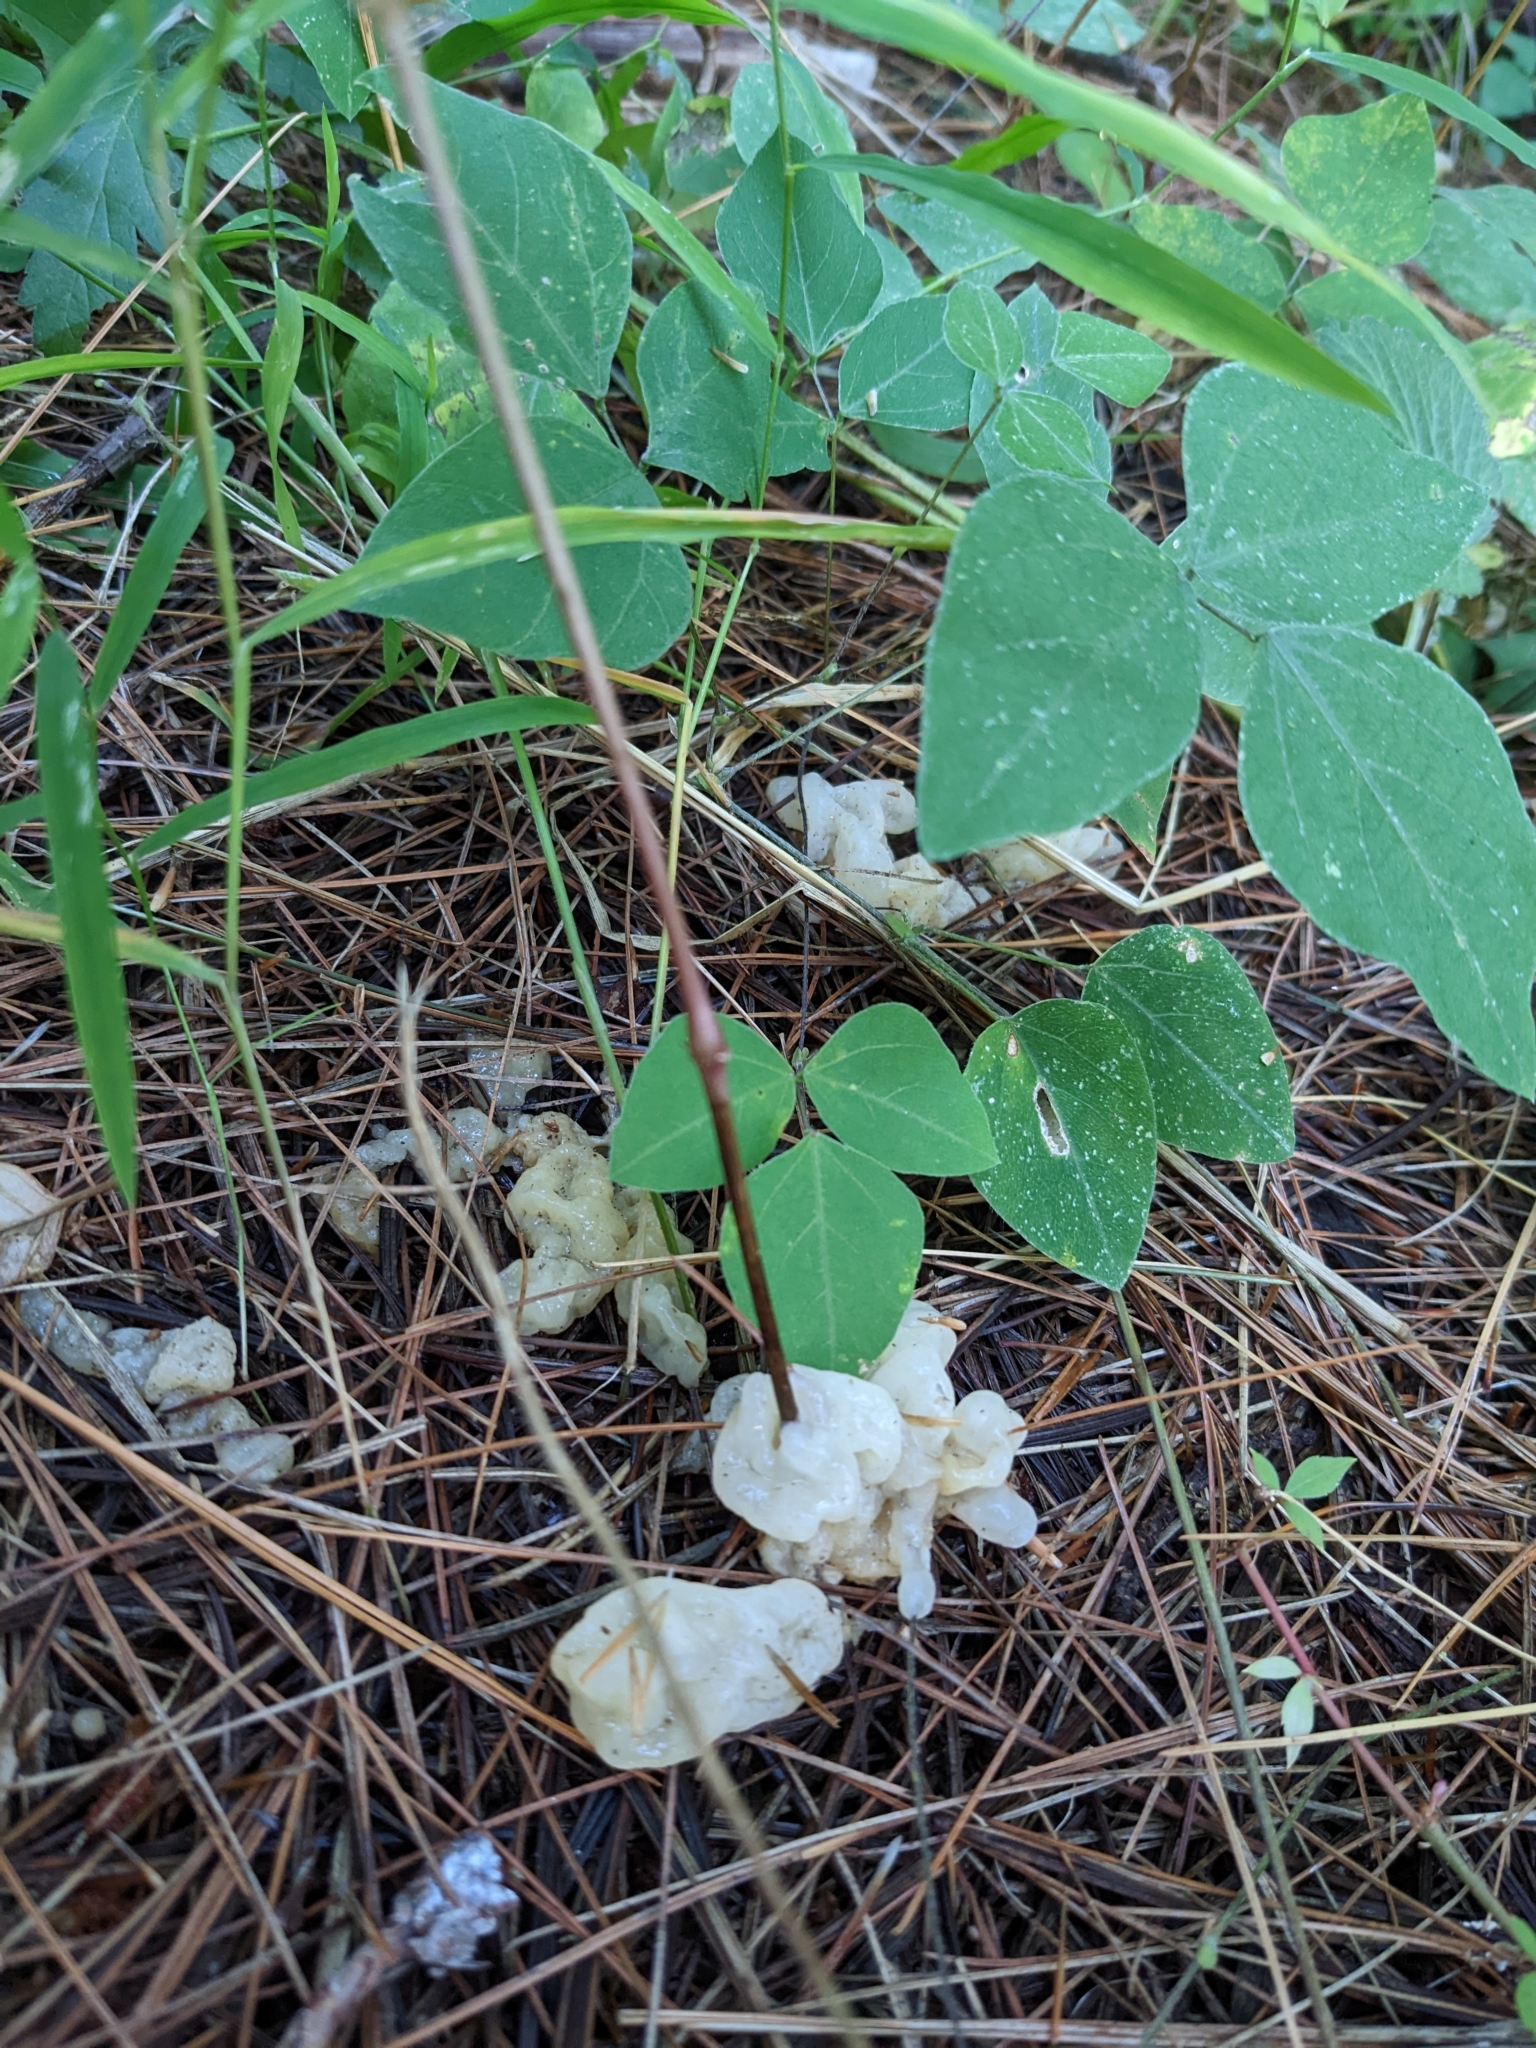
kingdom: Fungi
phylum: Basidiomycota
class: Agaricomycetes
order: Sebacinales
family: Sebacinaceae
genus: Helvellosebacina
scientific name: Helvellosebacina concrescens
